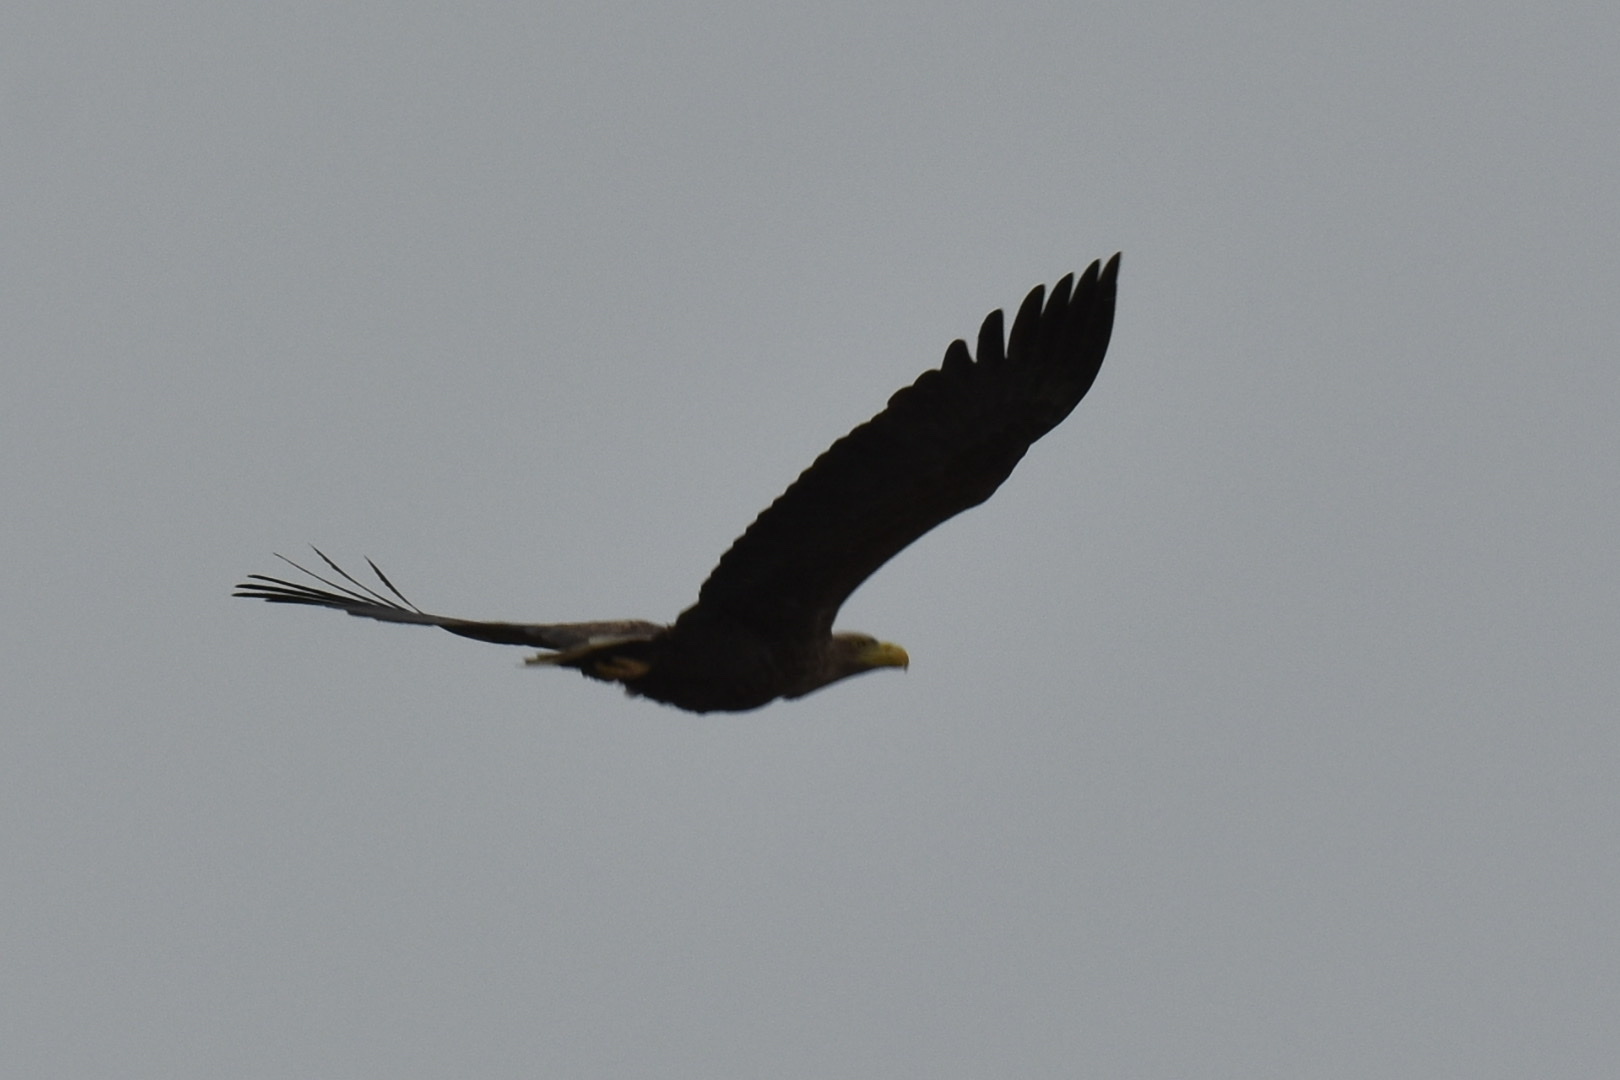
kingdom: Animalia
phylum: Chordata
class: Aves
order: Accipitriformes
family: Accipitridae
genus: Haliaeetus
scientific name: Haliaeetus albicilla
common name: White-tailed eagle
